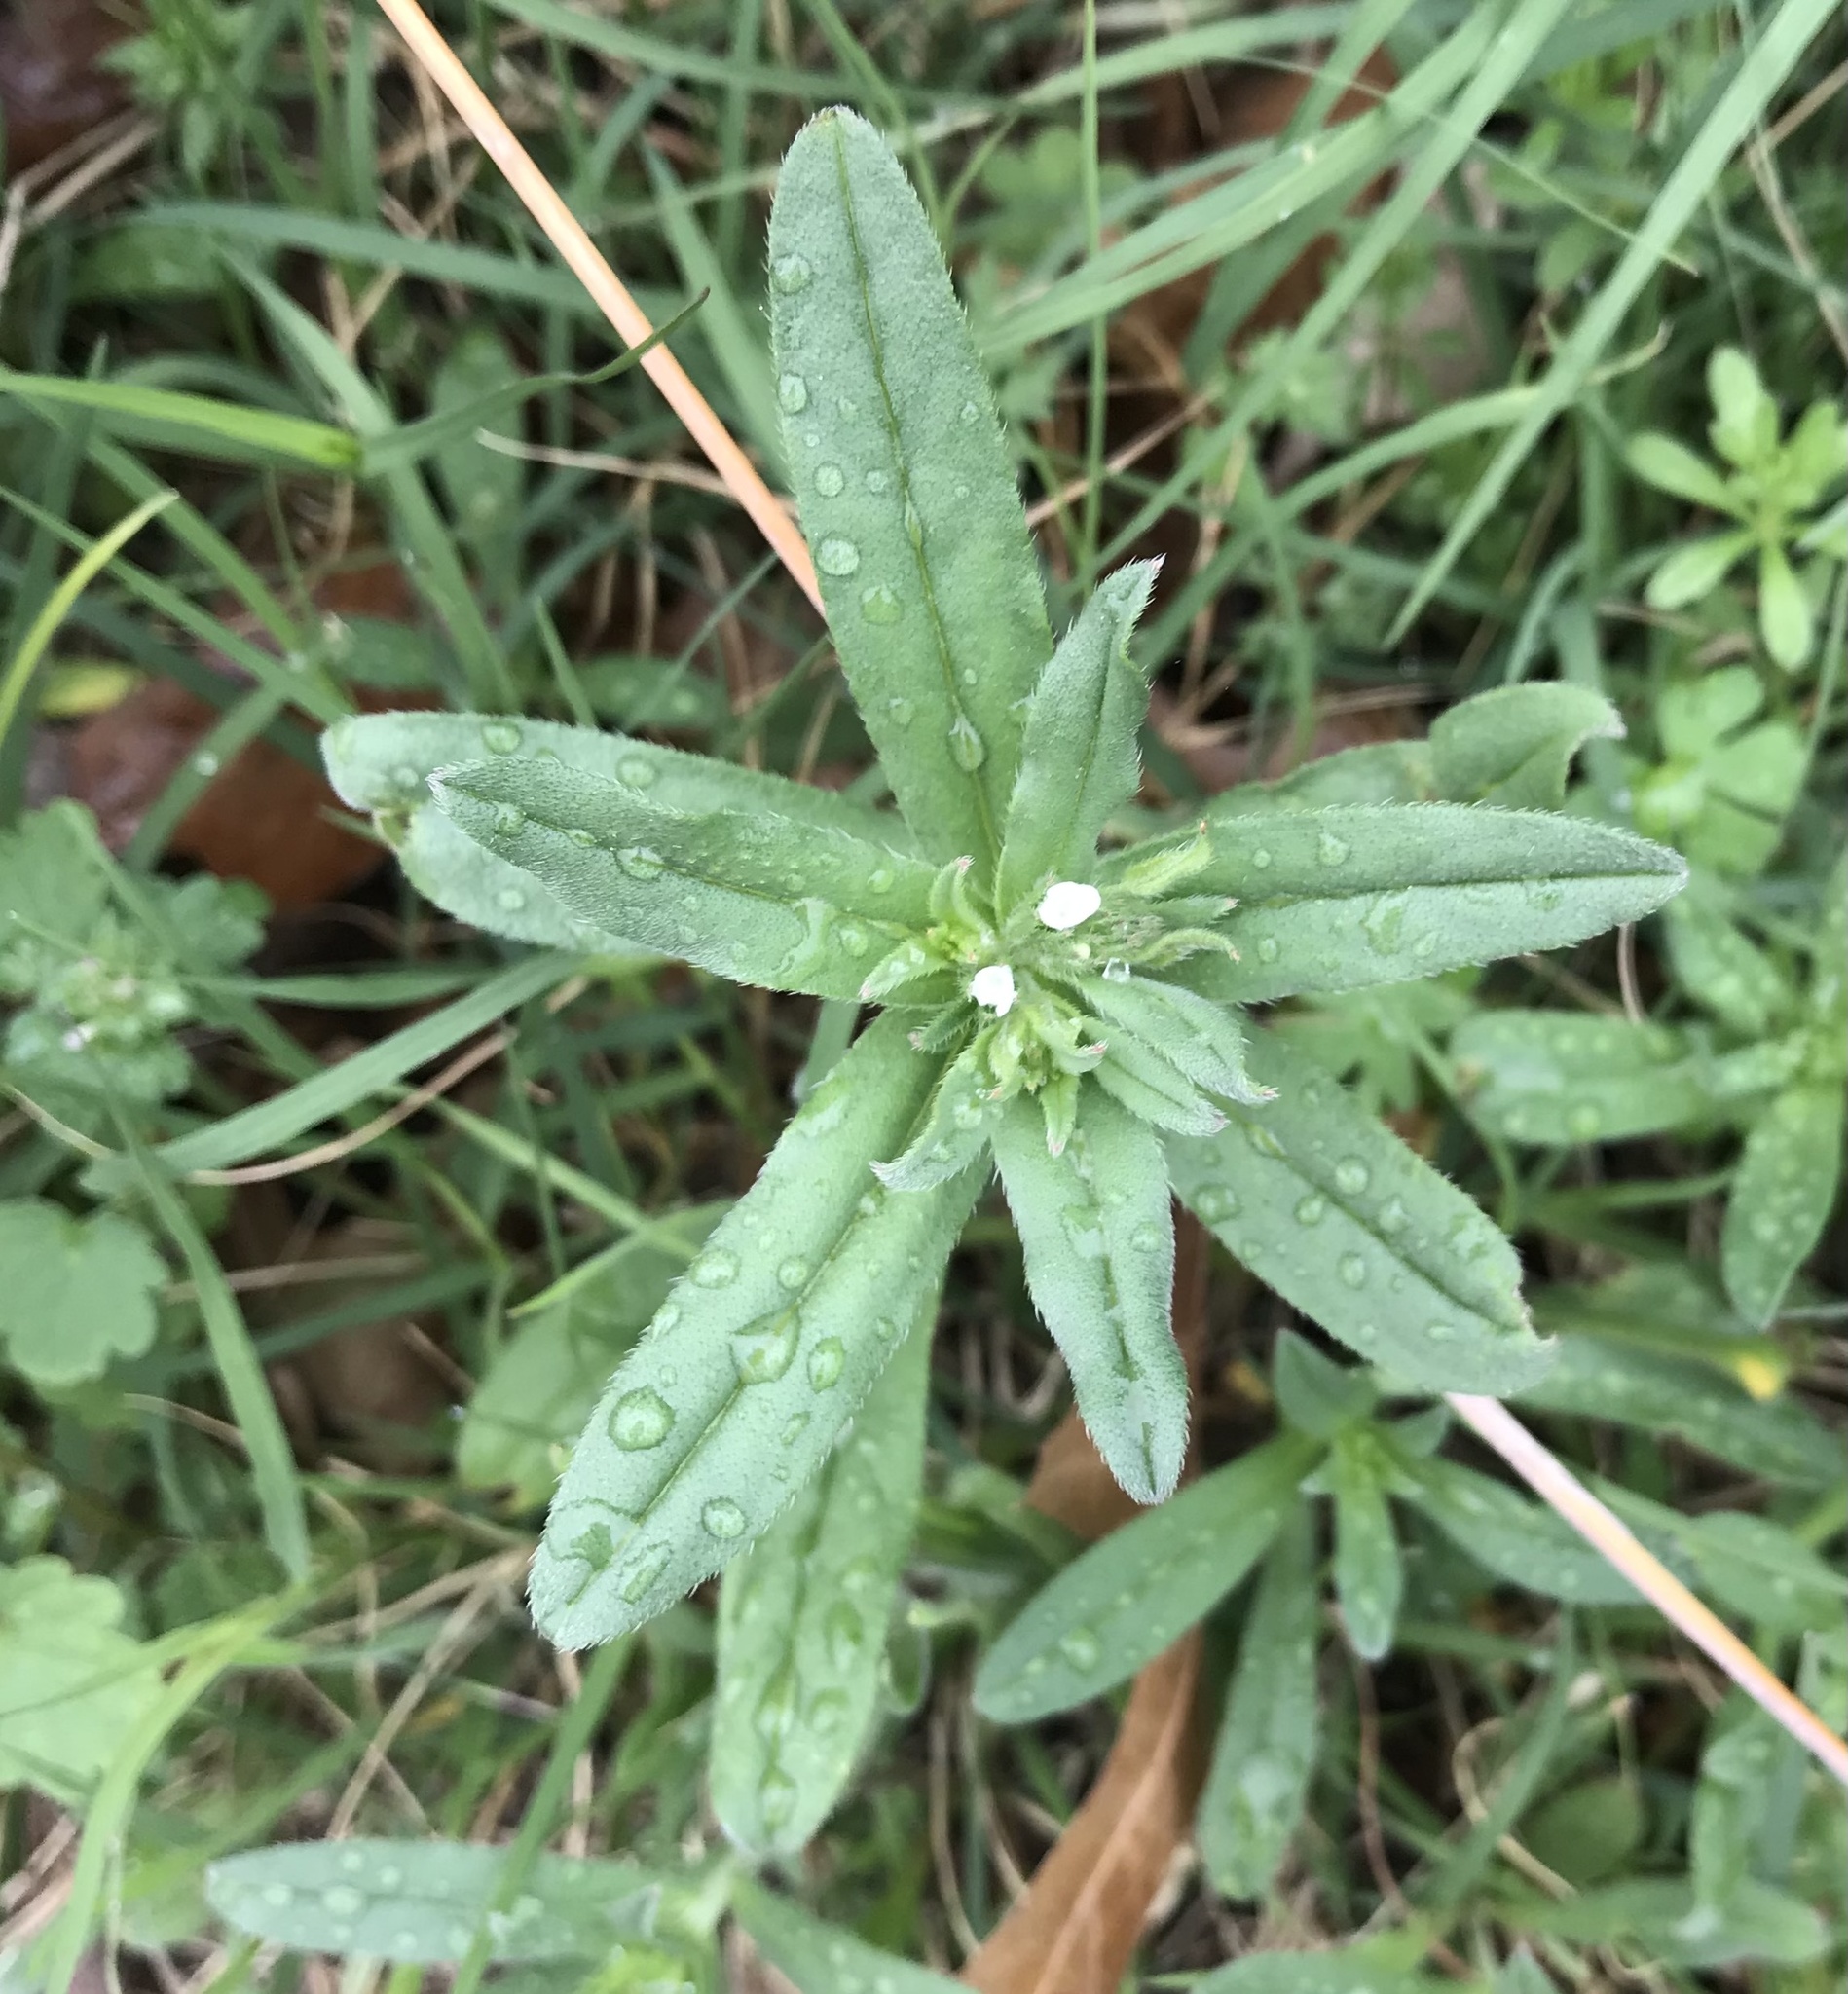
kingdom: Plantae
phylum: Tracheophyta
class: Magnoliopsida
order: Boraginales
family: Boraginaceae
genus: Buglossoides
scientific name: Buglossoides arvensis
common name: Corn gromwell
